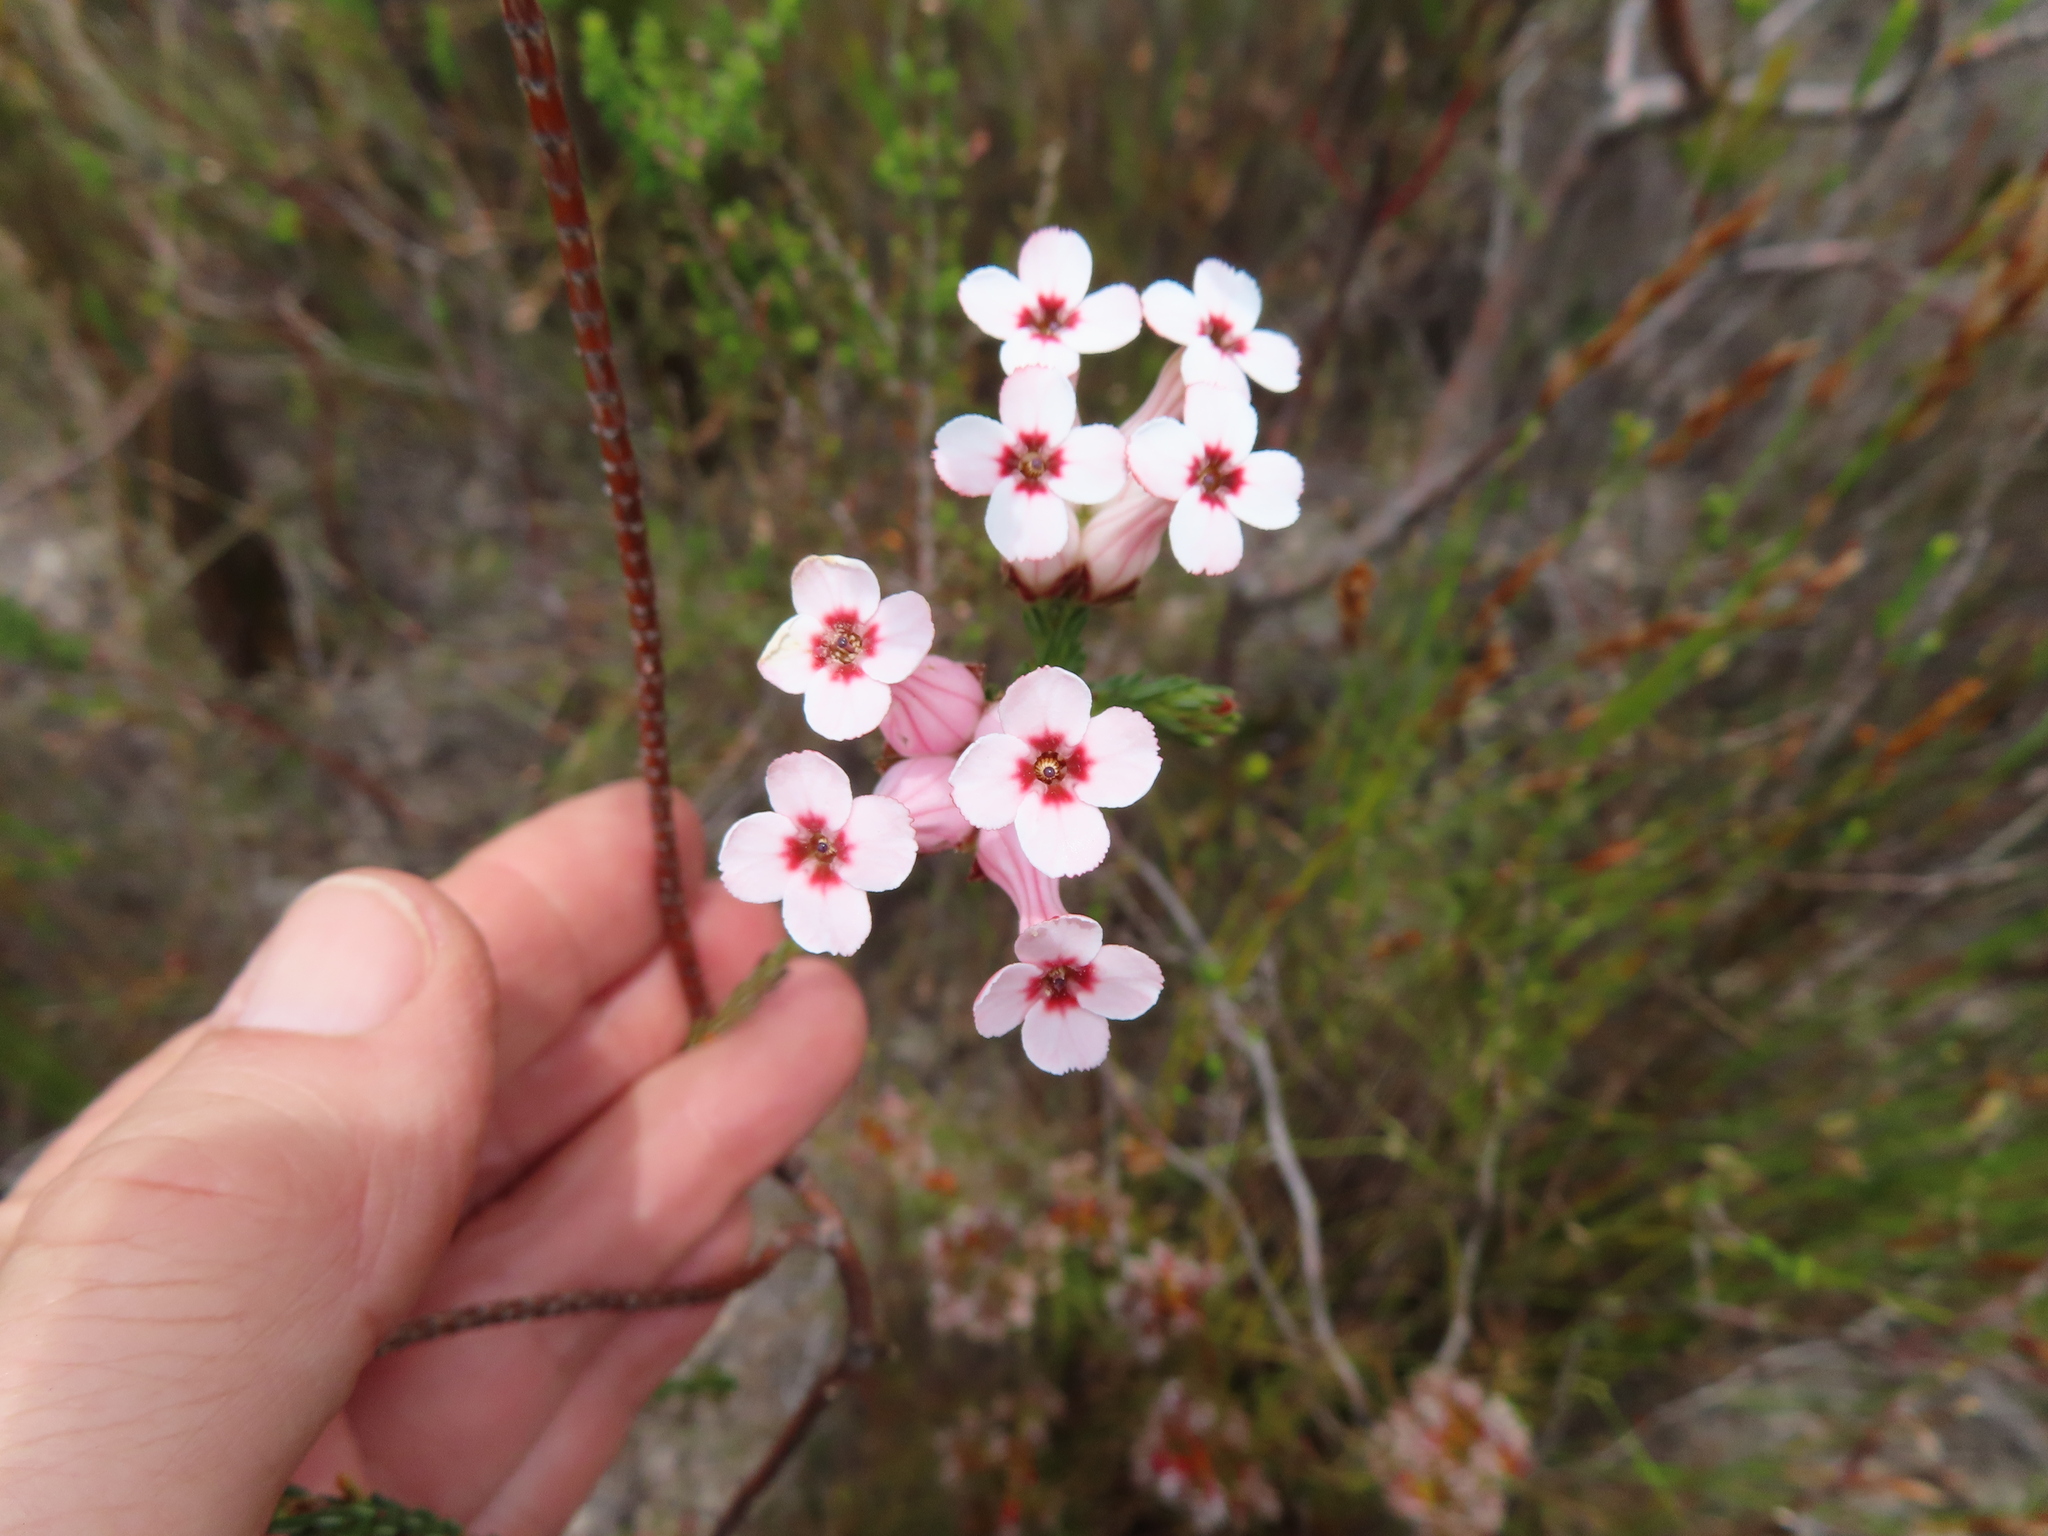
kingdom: Plantae
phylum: Tracheophyta
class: Magnoliopsida
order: Ericales
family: Ericaceae
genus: Erica
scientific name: Erica ampullacea
